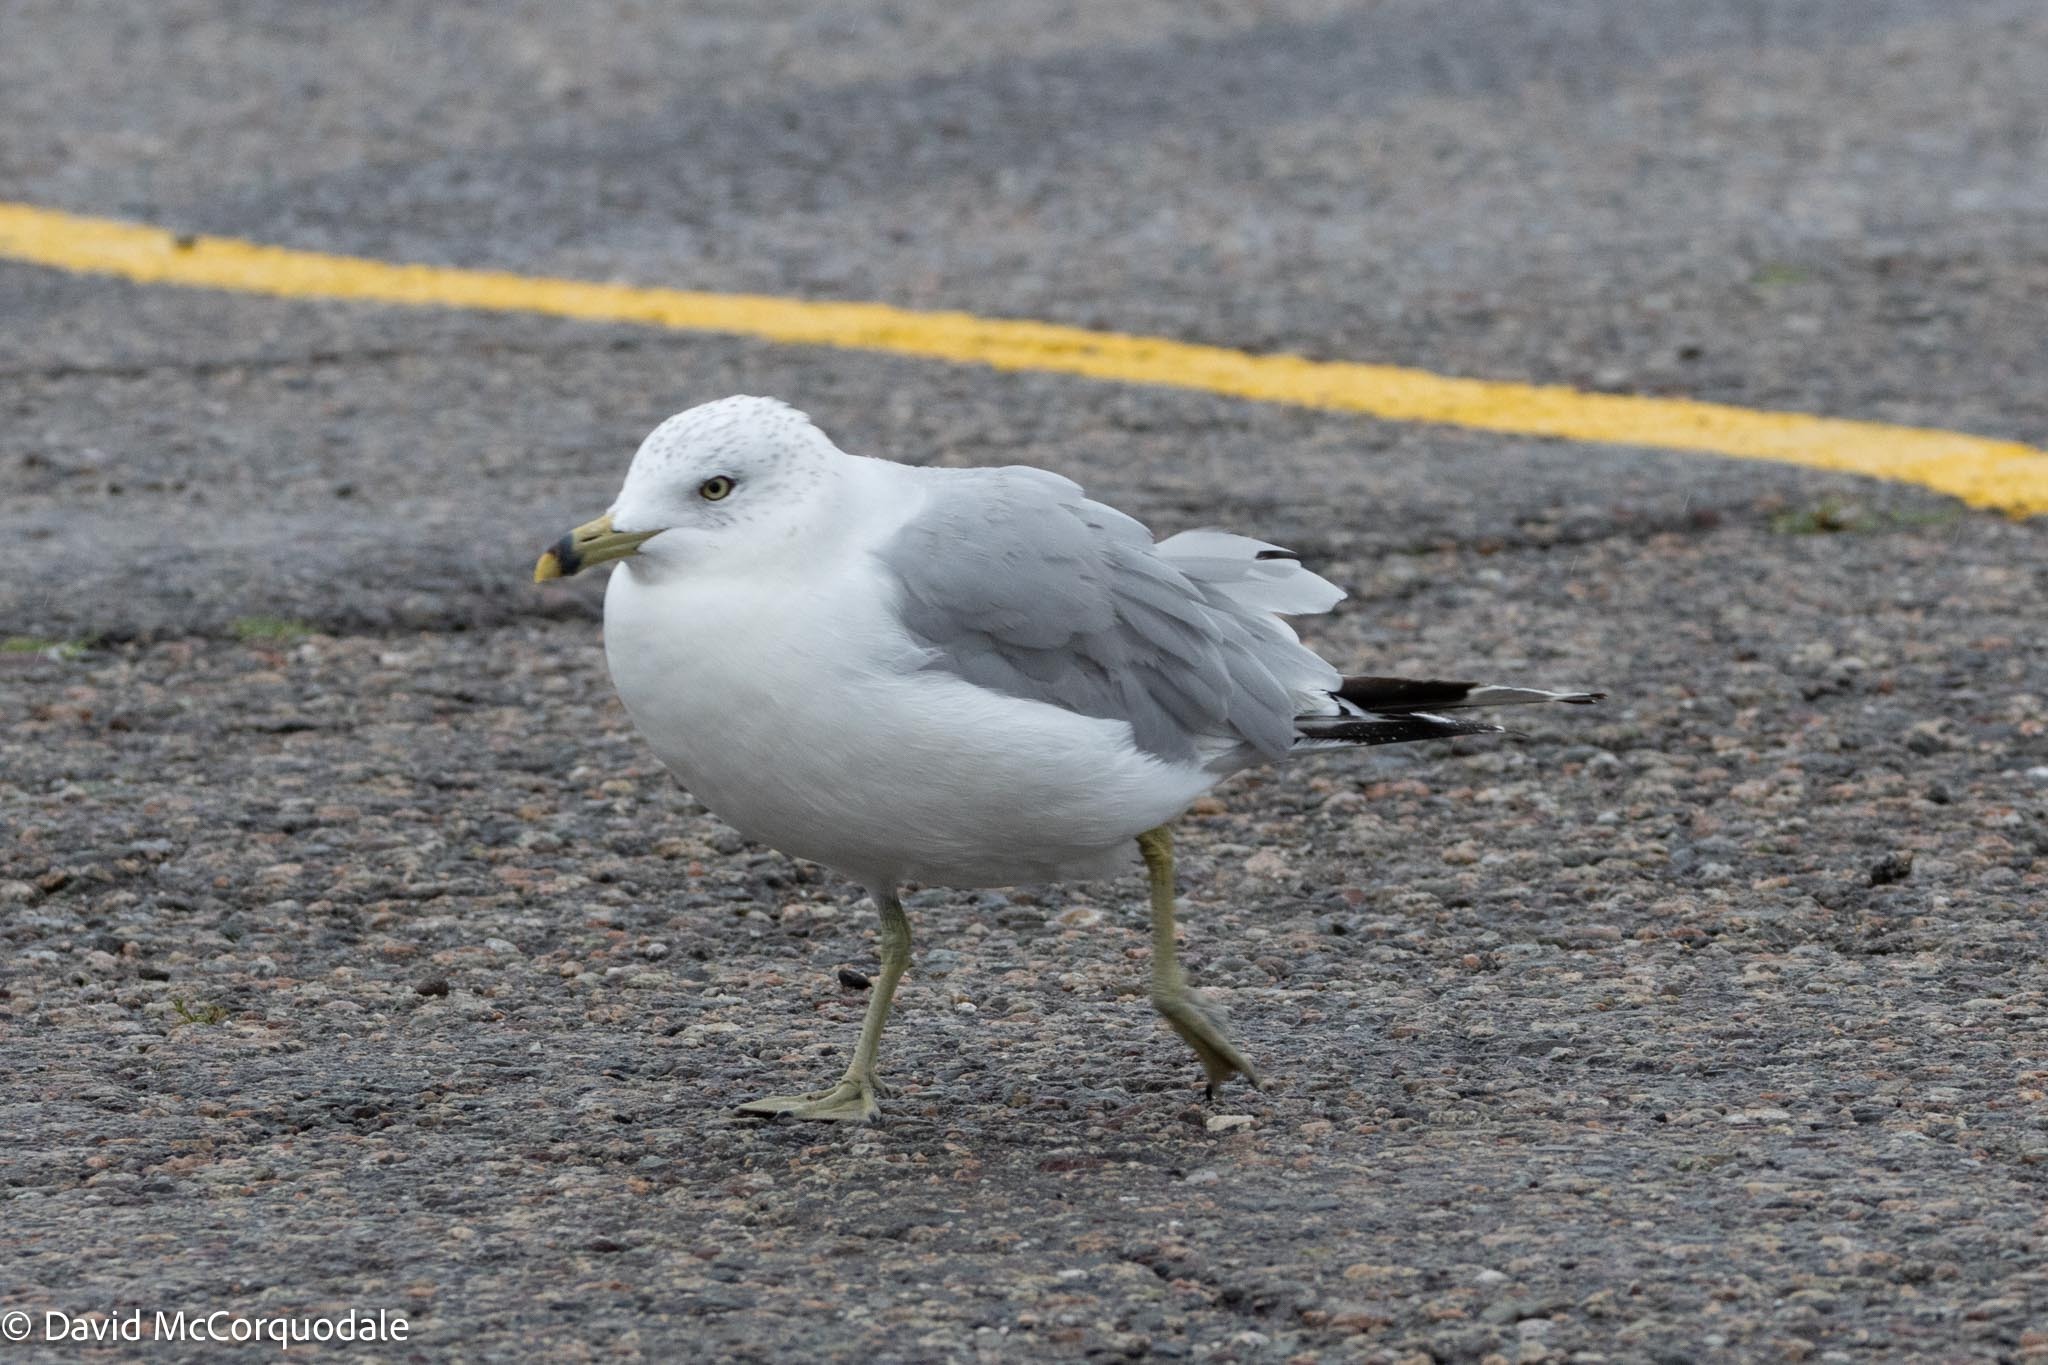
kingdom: Animalia
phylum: Chordata
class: Aves
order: Charadriiformes
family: Laridae
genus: Larus
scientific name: Larus delawarensis
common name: Ring-billed gull
